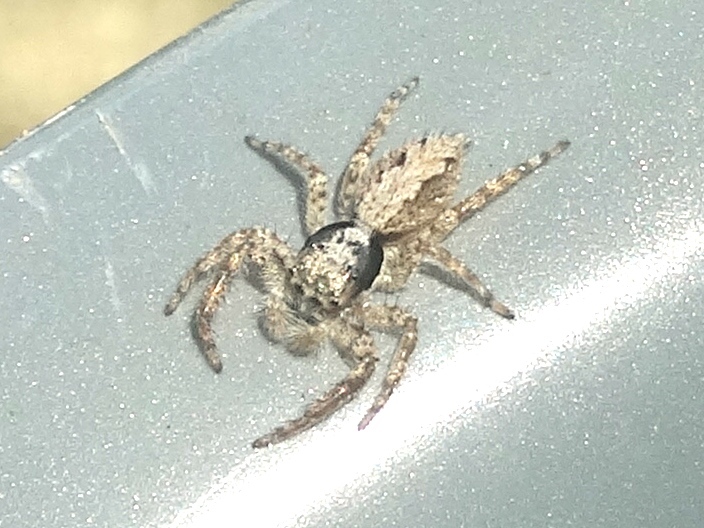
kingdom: Animalia
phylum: Arthropoda
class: Arachnida
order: Araneae
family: Salticidae
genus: Balmaceda
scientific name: Balmaceda
